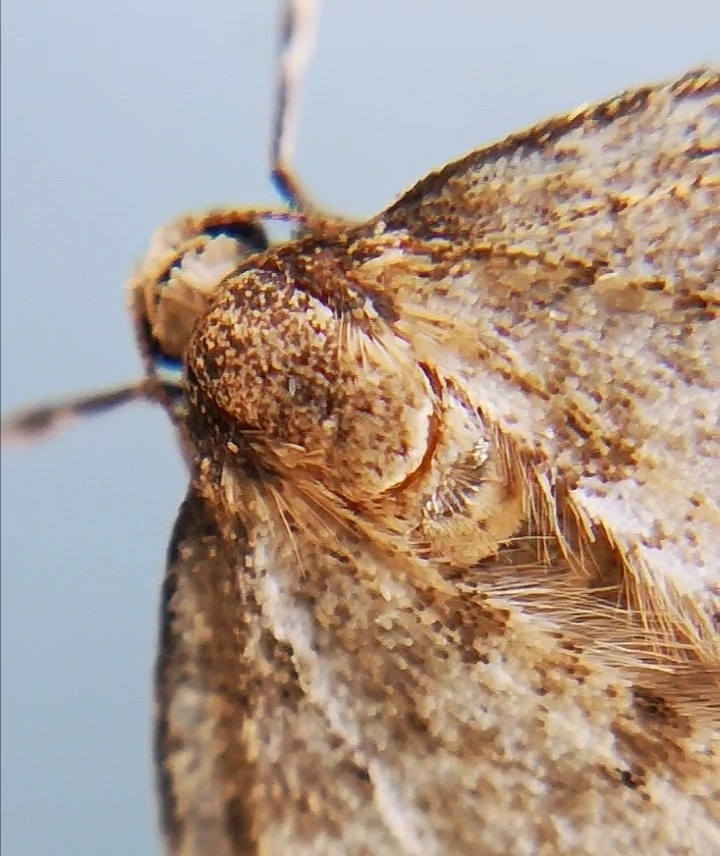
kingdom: Animalia
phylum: Arthropoda
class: Insecta
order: Lepidoptera
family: Geometridae
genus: Operophtera
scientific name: Operophtera brumata
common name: Winter moth
